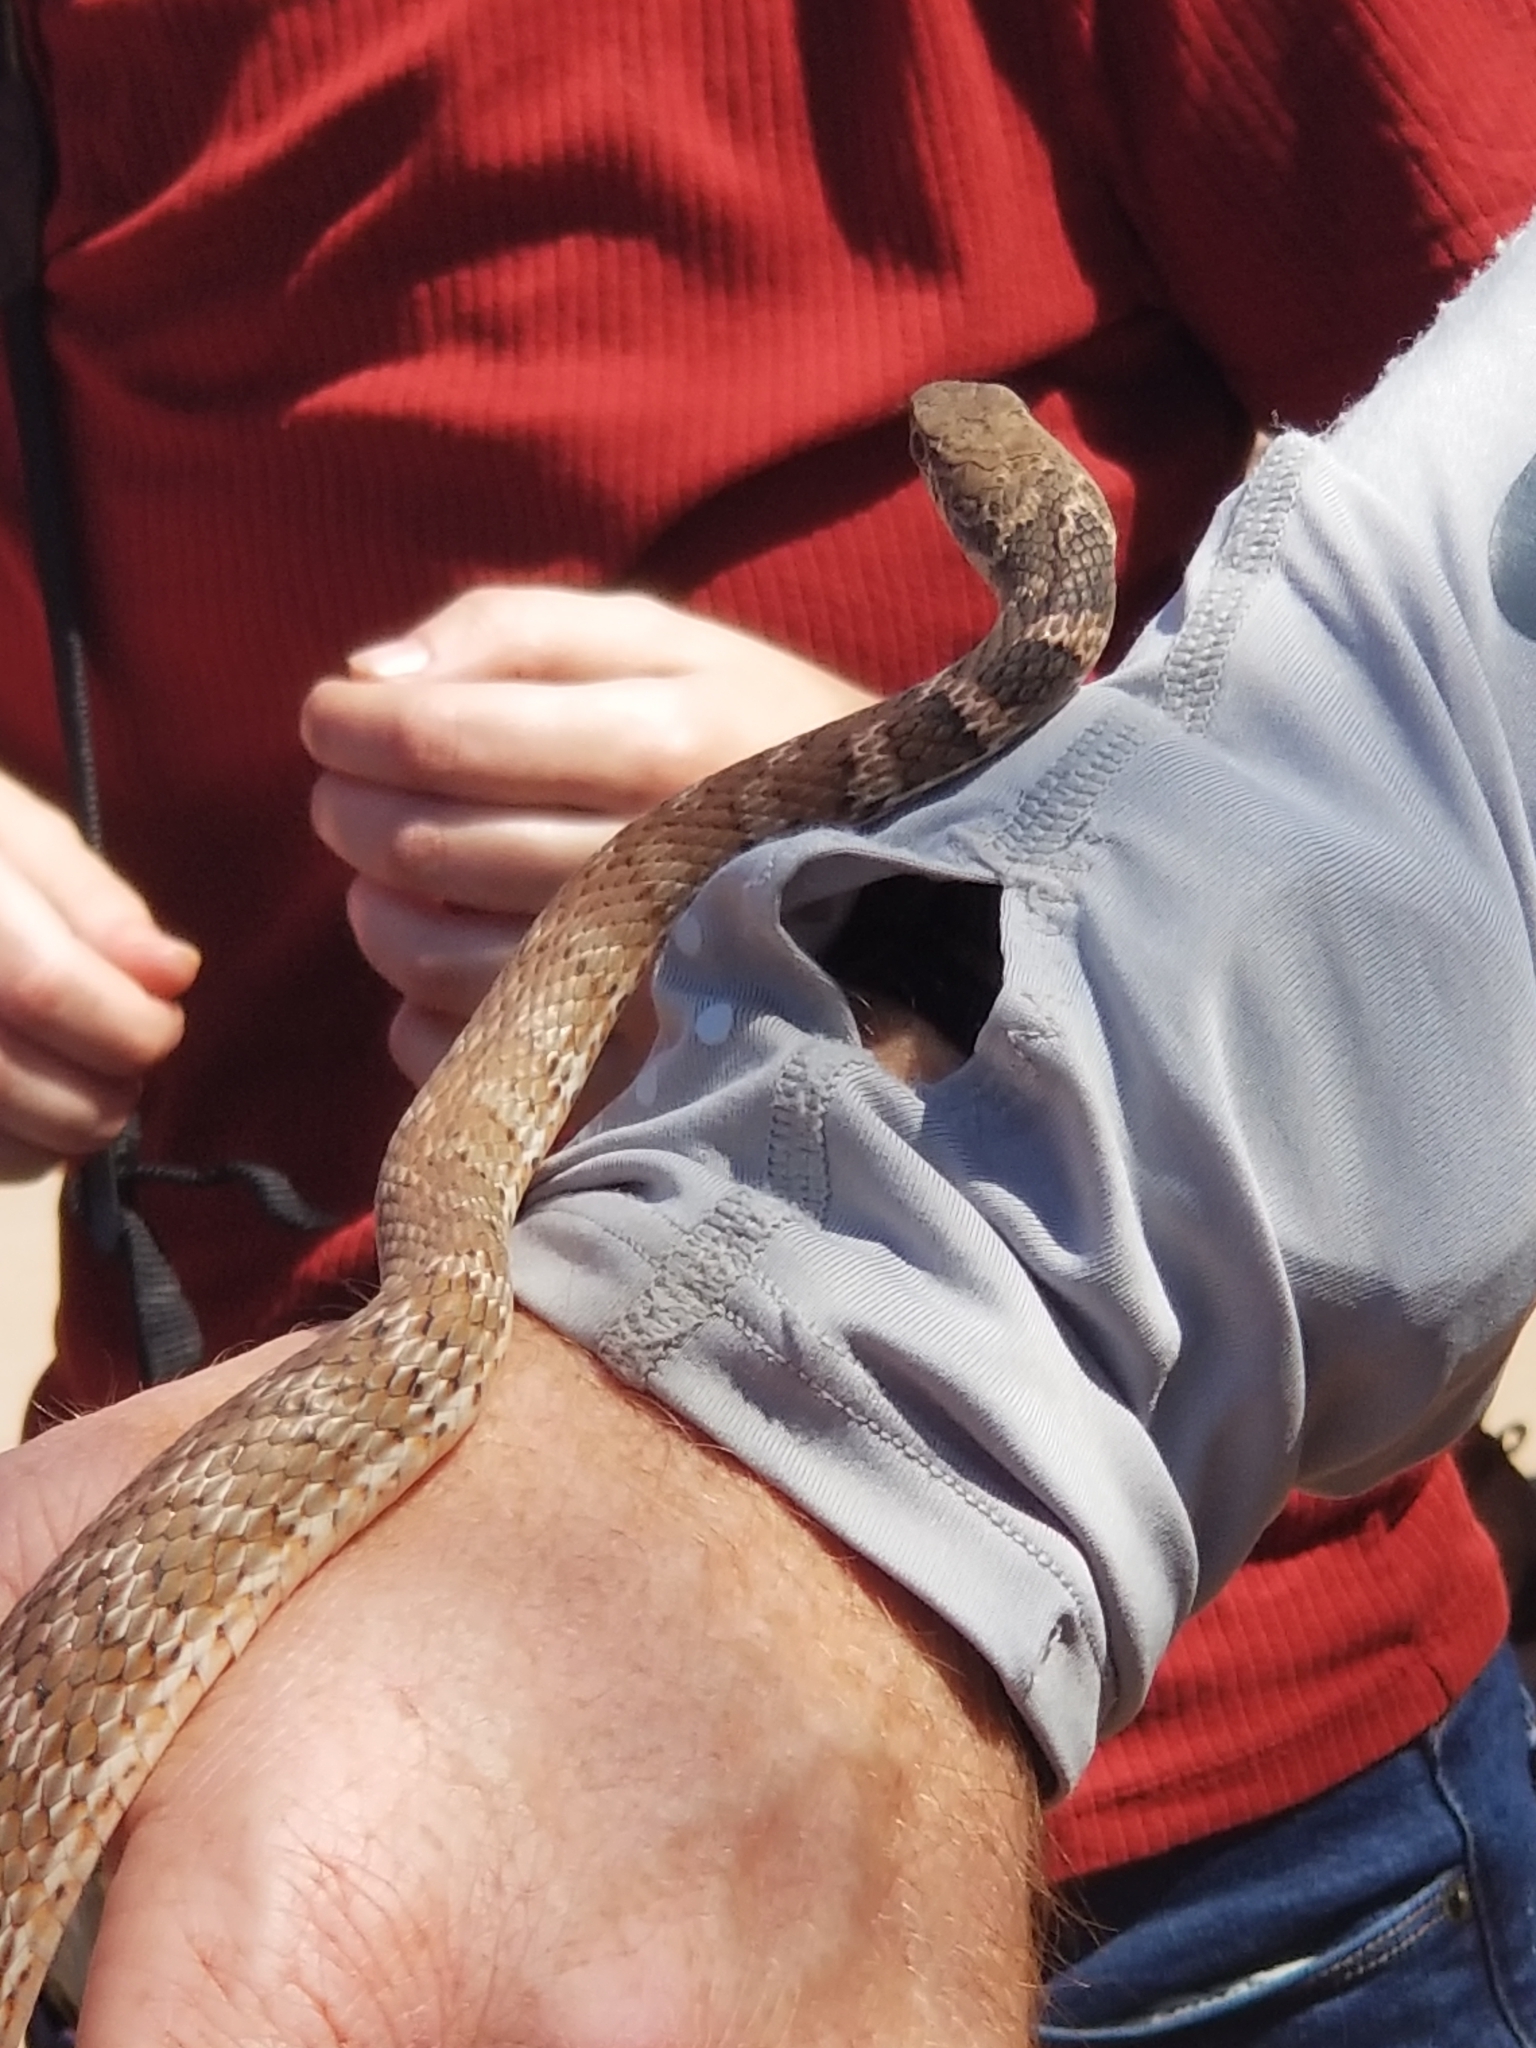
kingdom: Animalia
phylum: Chordata
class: Squamata
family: Colubridae
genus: Masticophis
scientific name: Masticophis flagellum
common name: Coachwhip
